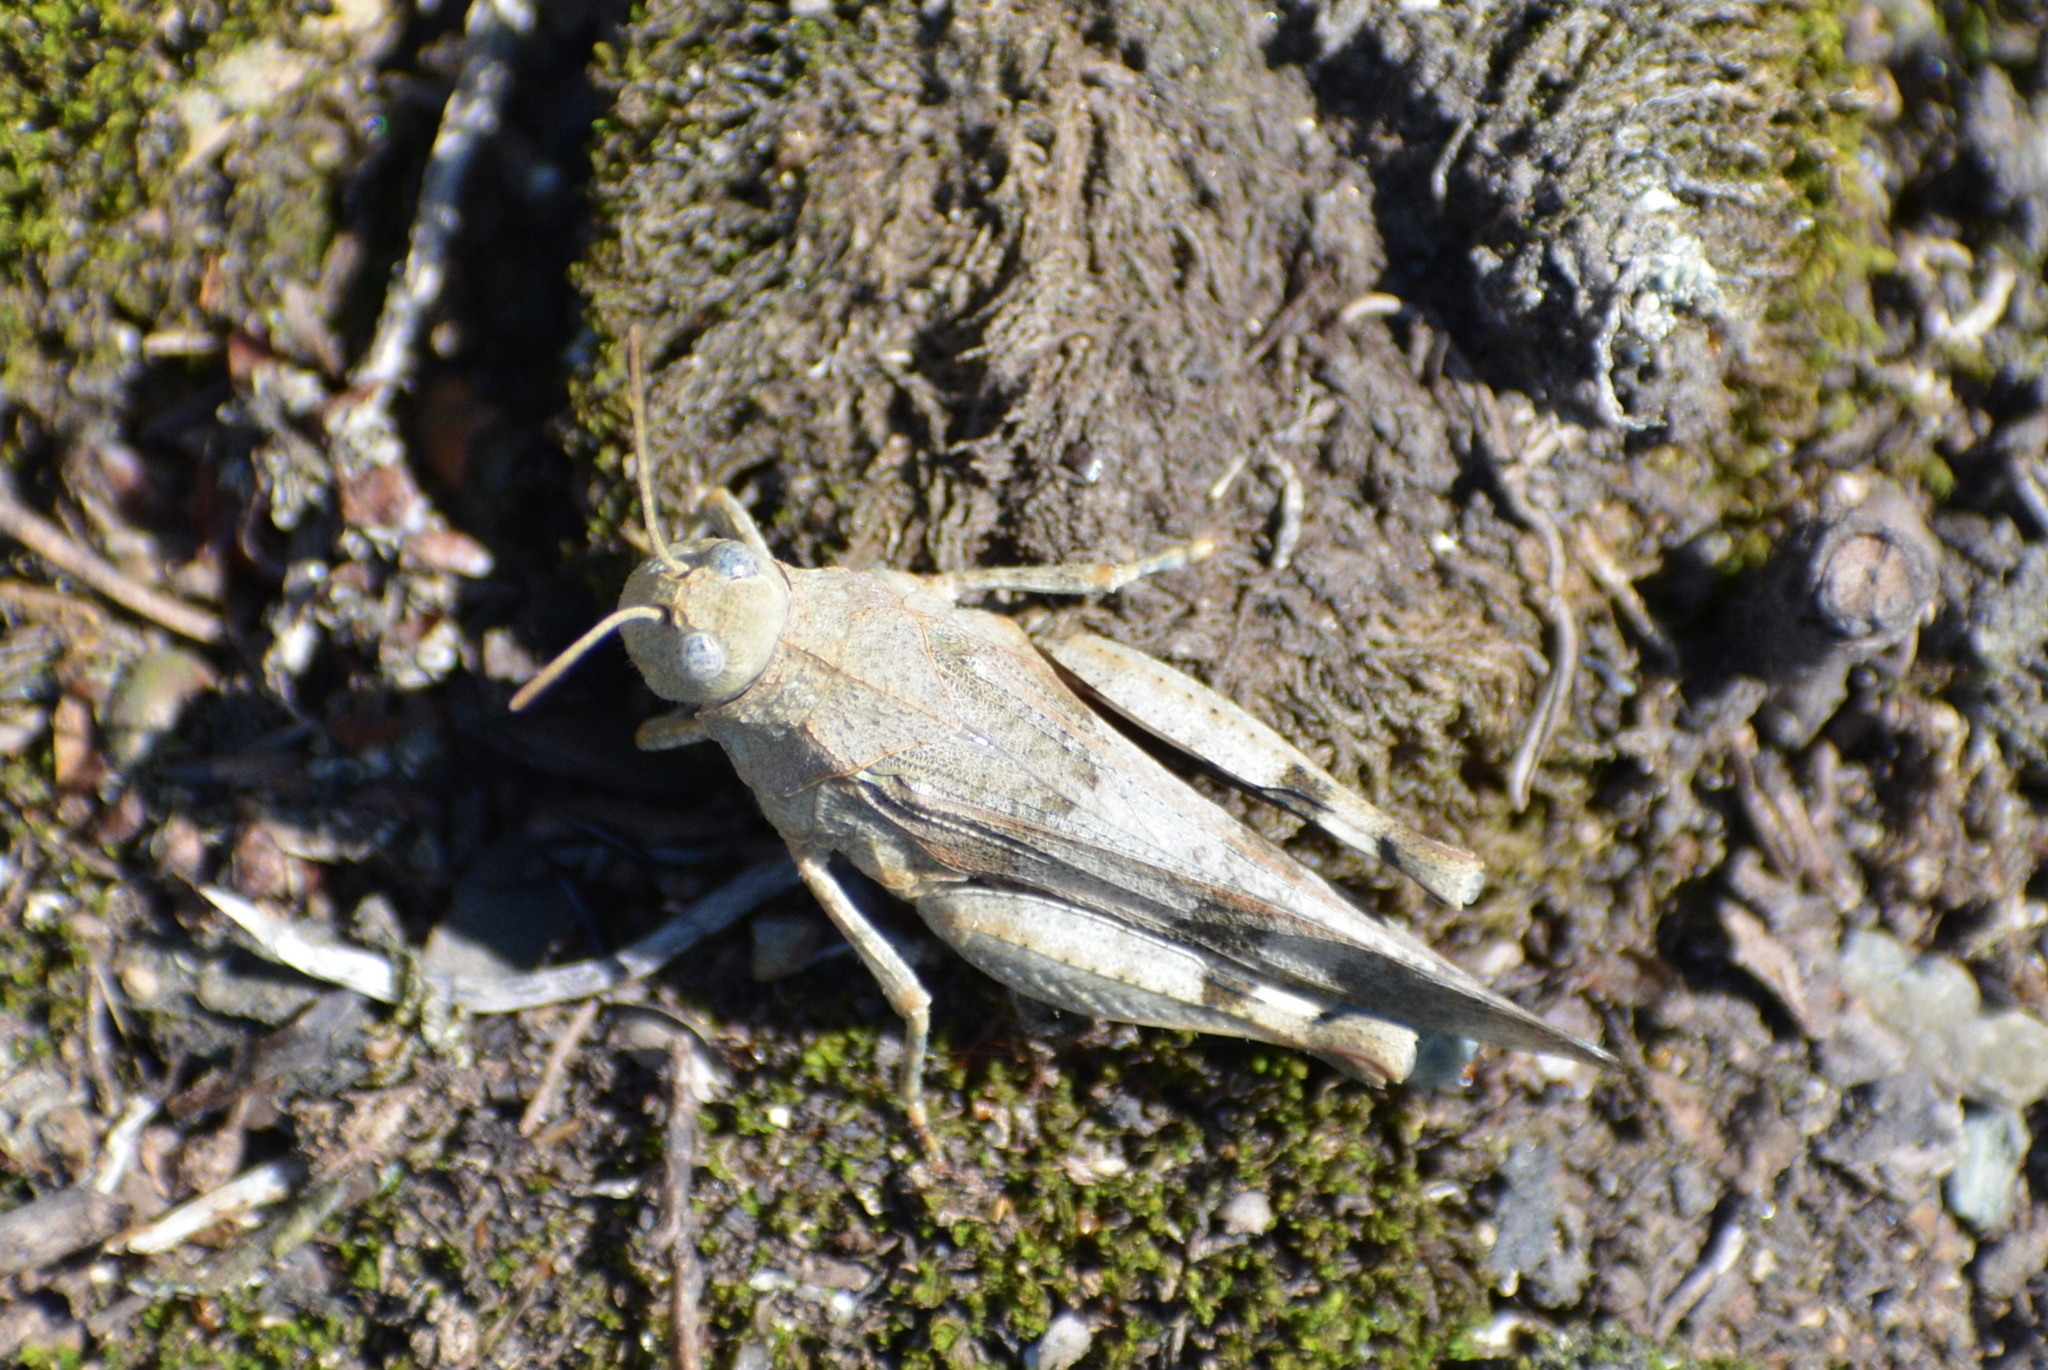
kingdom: Animalia
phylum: Arthropoda
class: Insecta
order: Orthoptera
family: Acrididae
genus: Oedipoda
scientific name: Oedipoda caerulescens
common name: Blue-winged grasshopper
